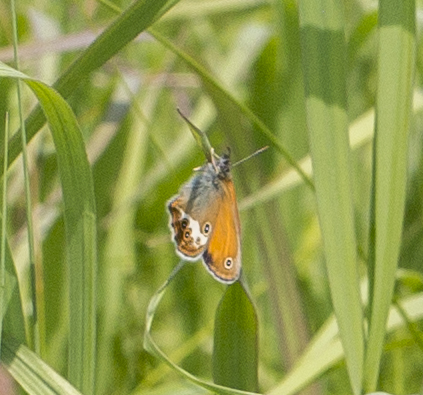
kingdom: Animalia
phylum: Arthropoda
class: Insecta
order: Lepidoptera
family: Nymphalidae
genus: Coenonympha
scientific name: Coenonympha arcania
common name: Pearly heath
